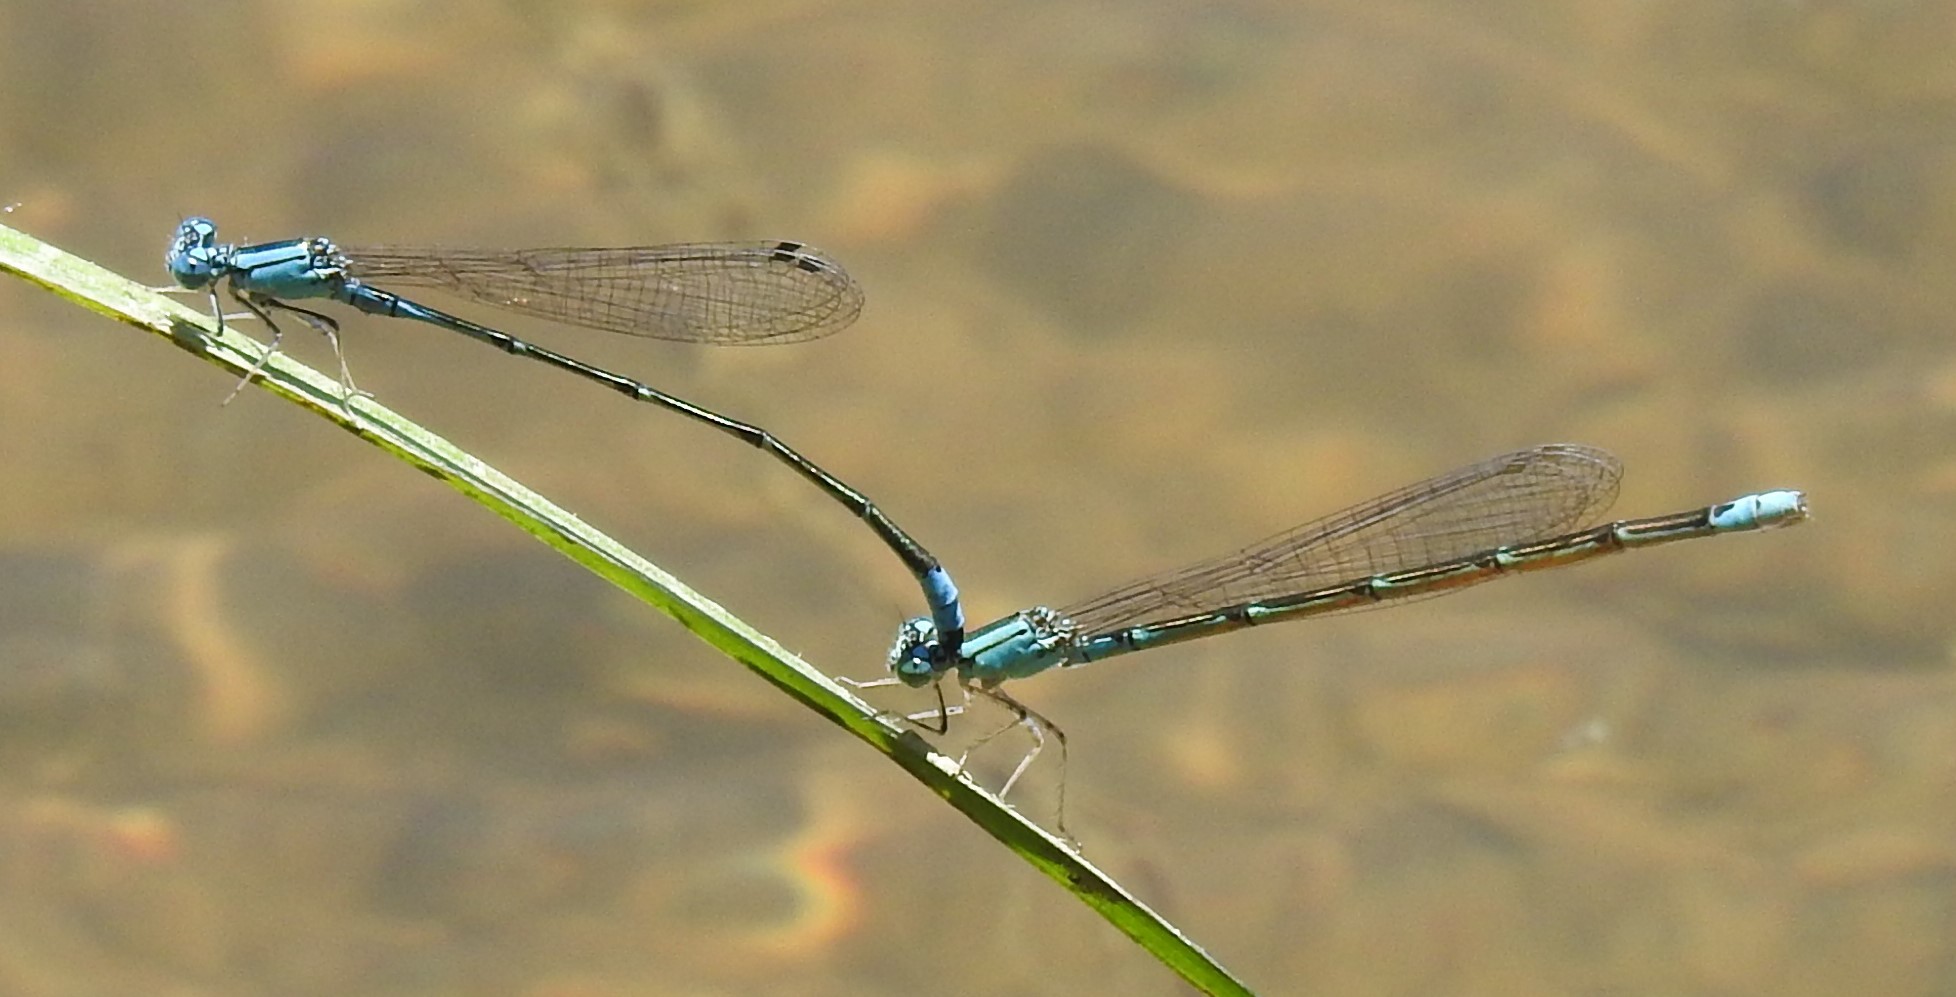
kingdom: Animalia
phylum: Arthropoda
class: Insecta
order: Odonata
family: Coenagrionidae
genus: Enallagma
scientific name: Enallagma traviatum
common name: Slender bluet
